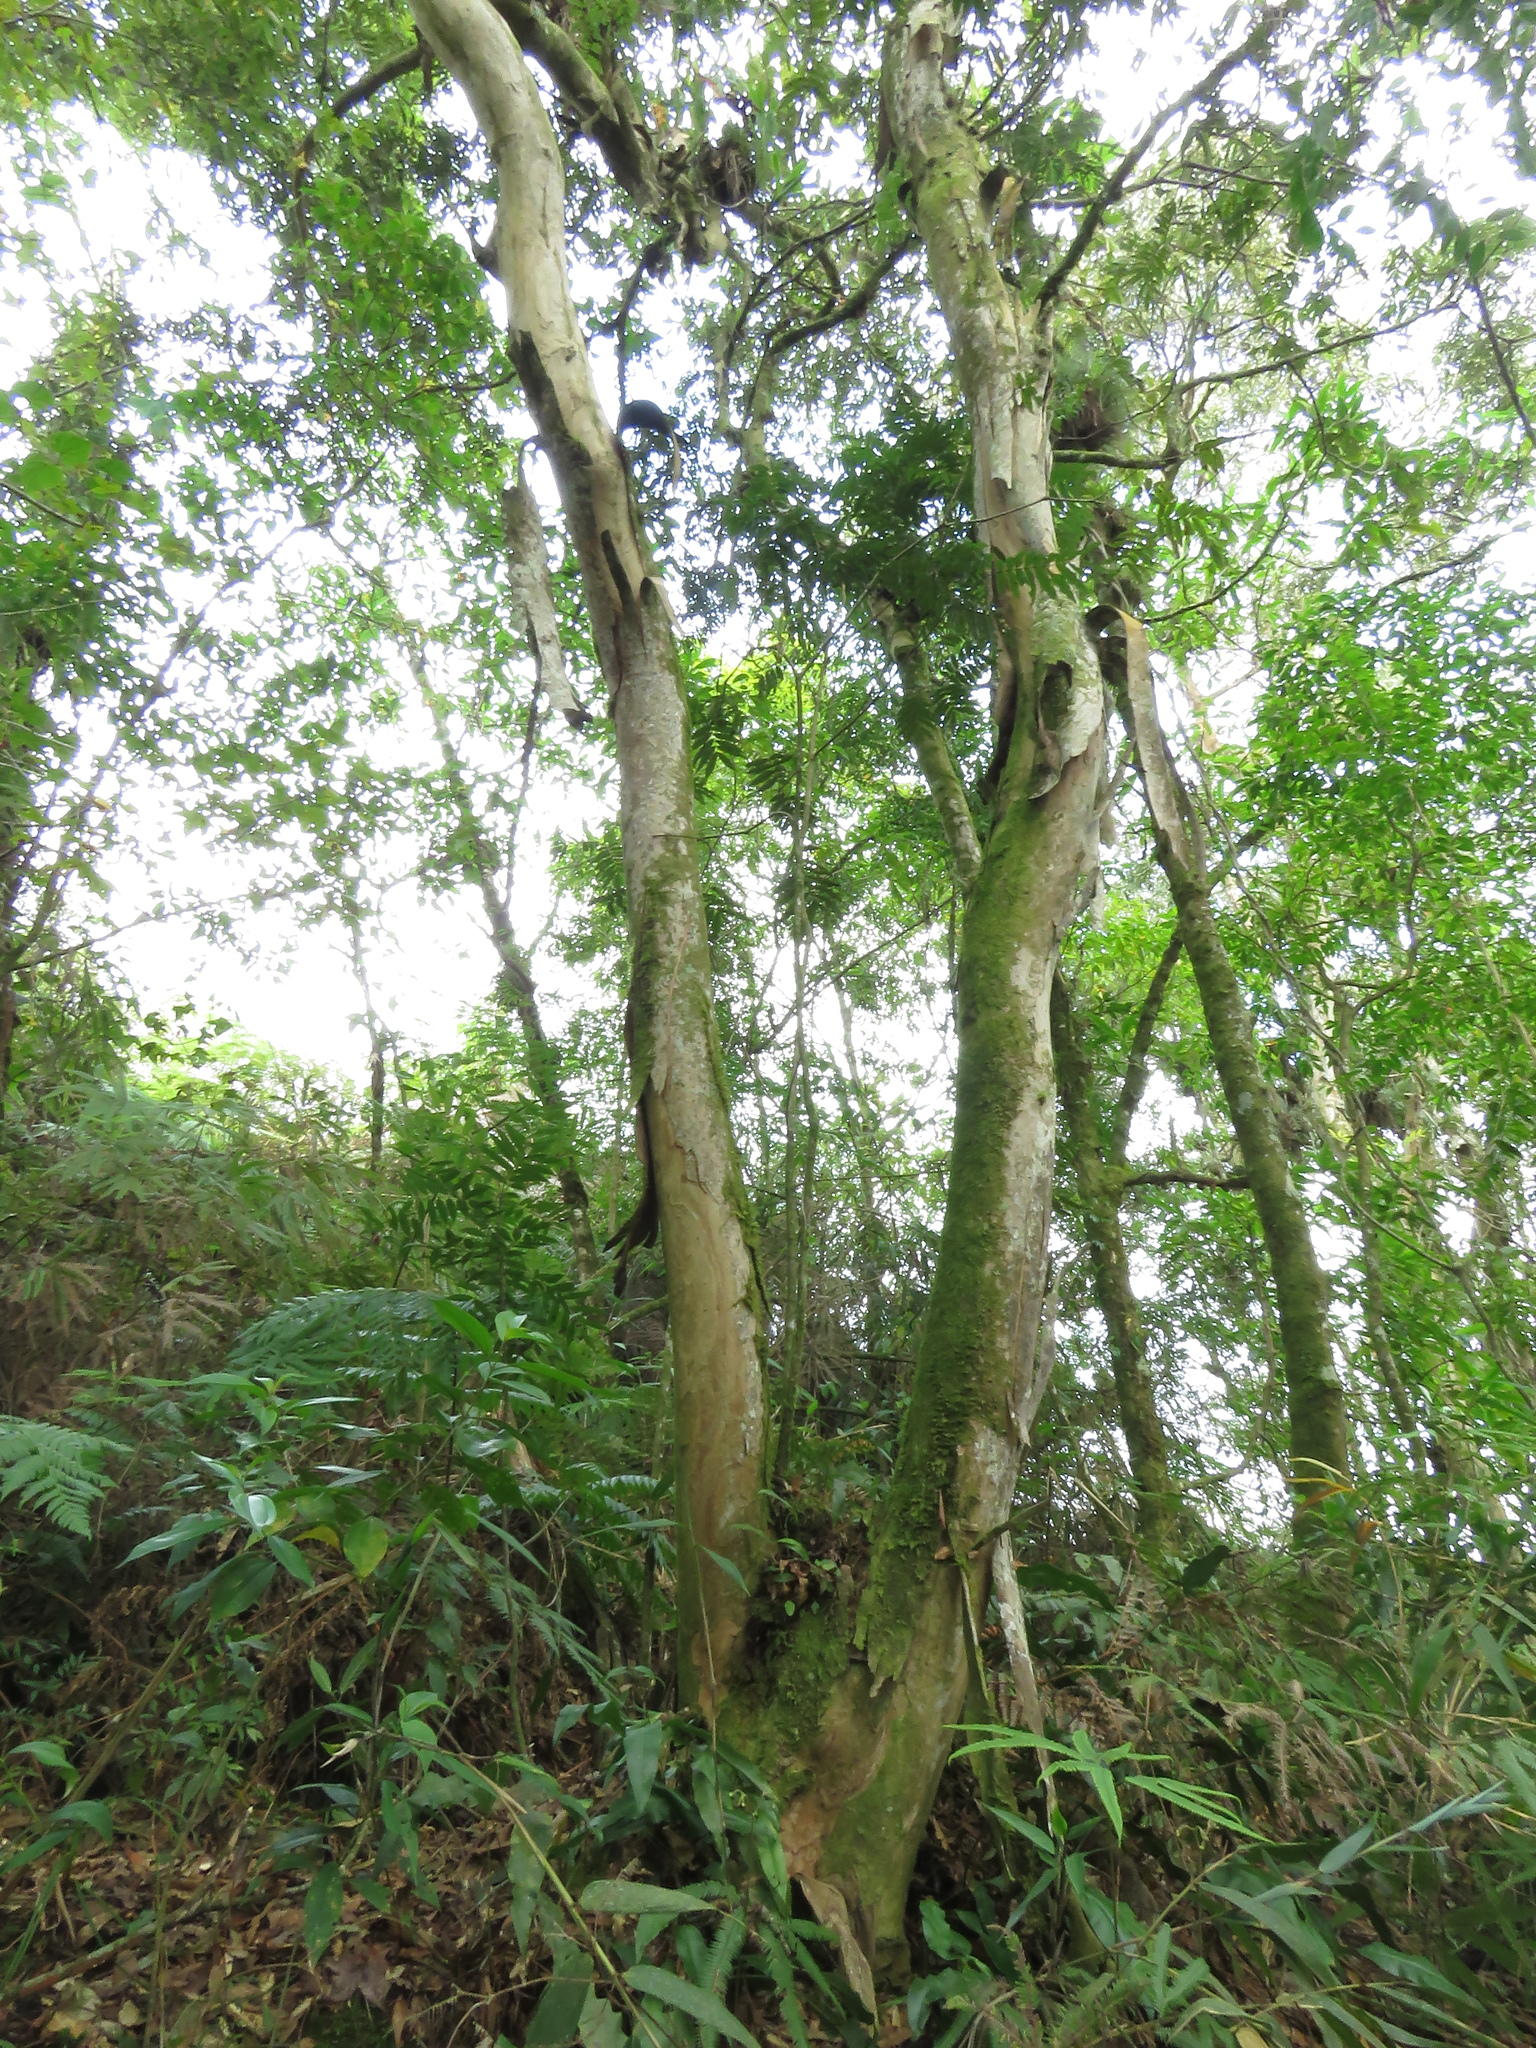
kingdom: Plantae
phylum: Tracheophyta
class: Magnoliopsida
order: Fagales
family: Juglandaceae
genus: Oreomunnea
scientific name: Oreomunnea mexicana
